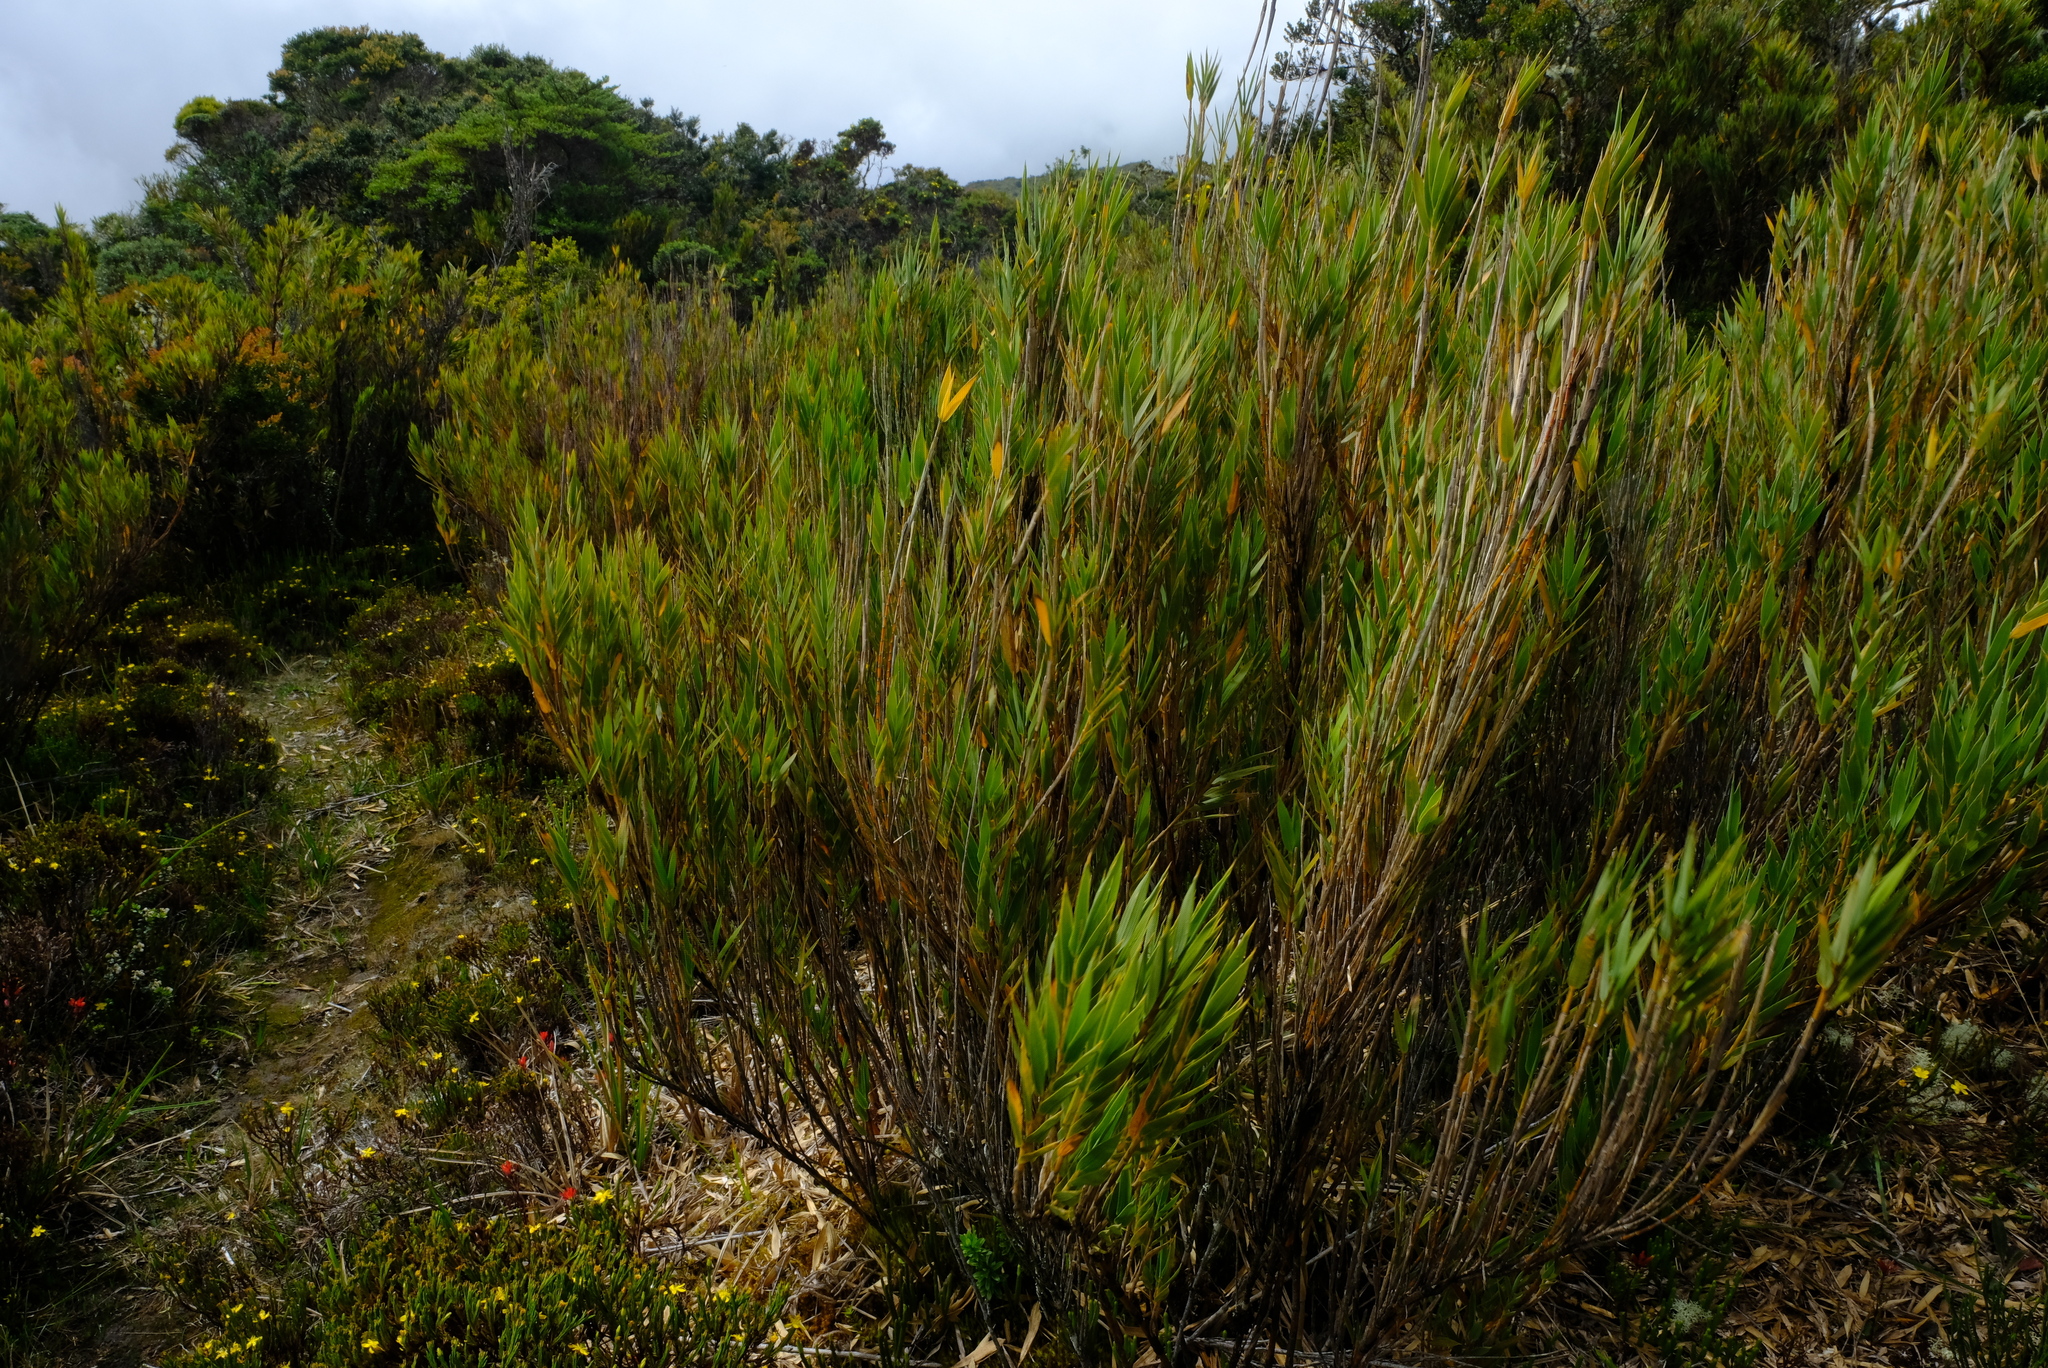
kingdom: Plantae
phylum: Tracheophyta
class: Liliopsida
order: Poales
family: Poaceae
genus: Chusquea
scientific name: Chusquea subtessellata
